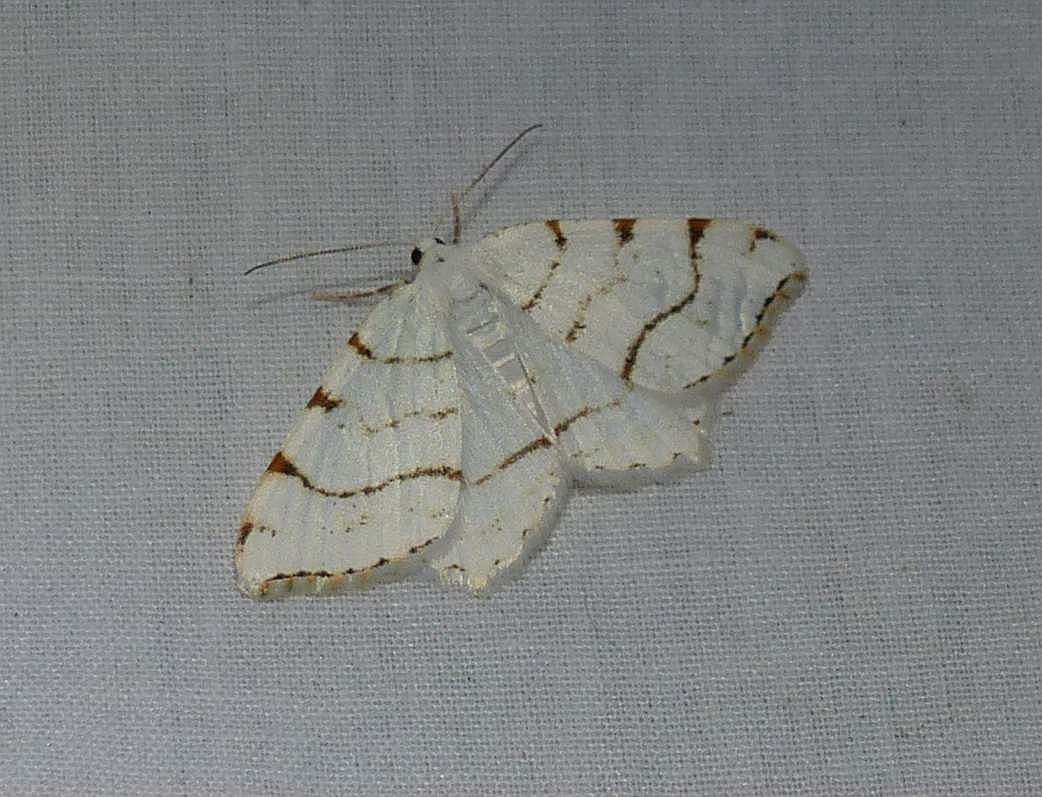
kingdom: Animalia
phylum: Arthropoda
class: Insecta
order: Lepidoptera
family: Geometridae
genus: Macaria
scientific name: Macaria pustularia
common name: Lesser maple spanworm moth
